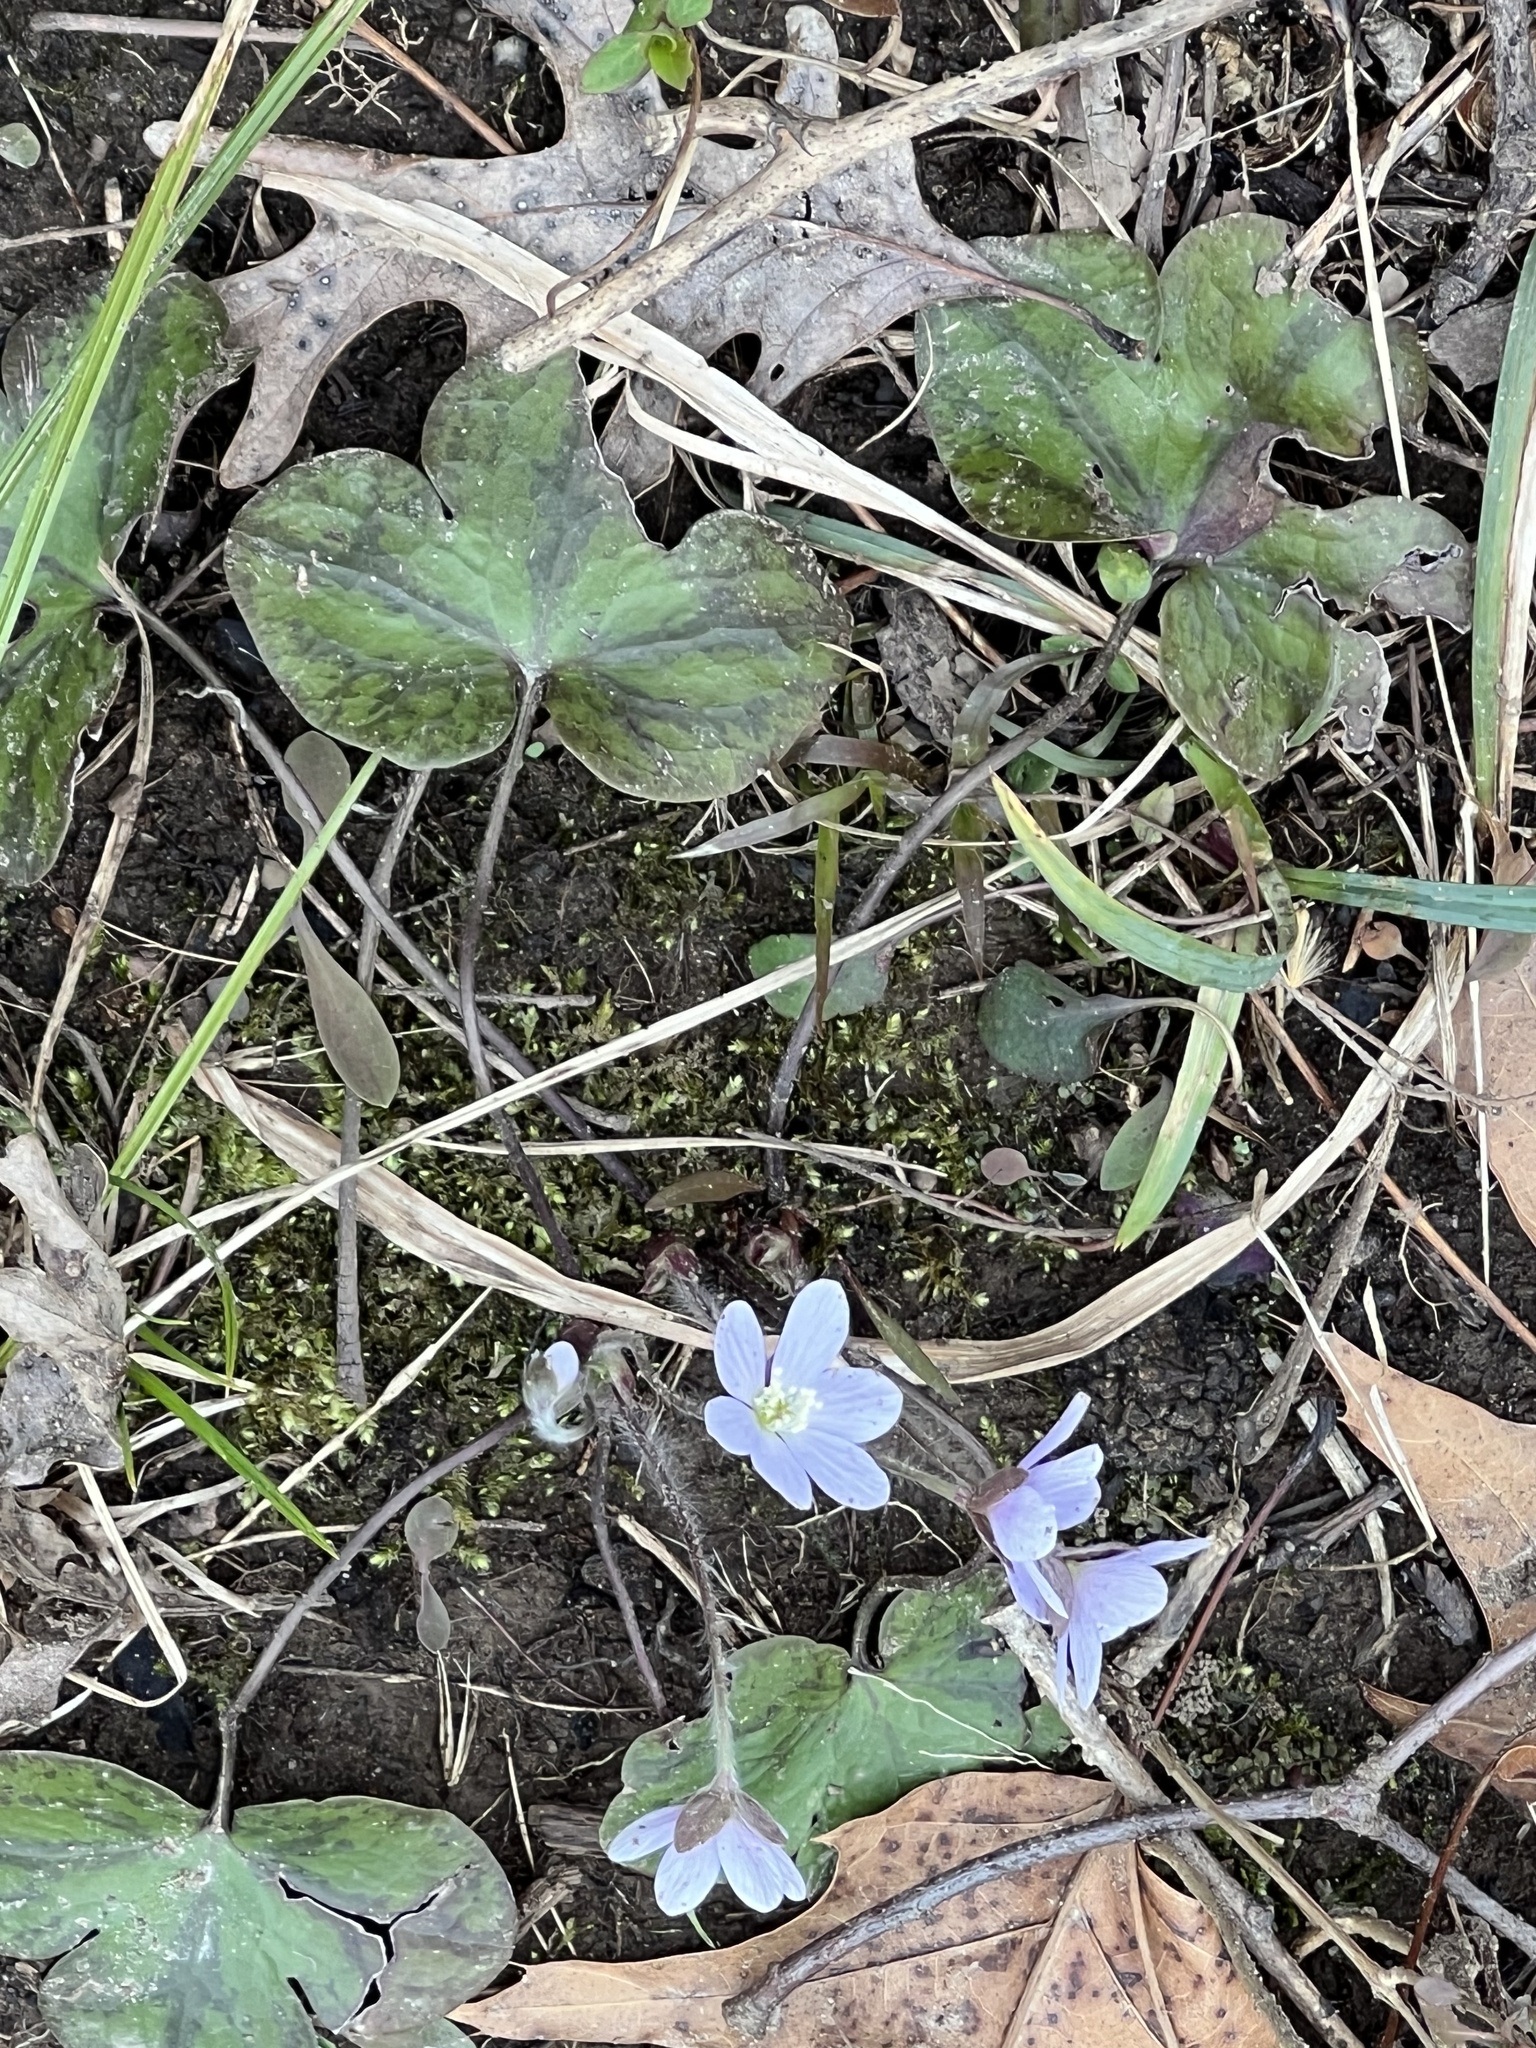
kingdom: Plantae
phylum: Tracheophyta
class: Magnoliopsida
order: Ranunculales
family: Ranunculaceae
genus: Hepatica
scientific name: Hepatica americana
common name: American hepatica
